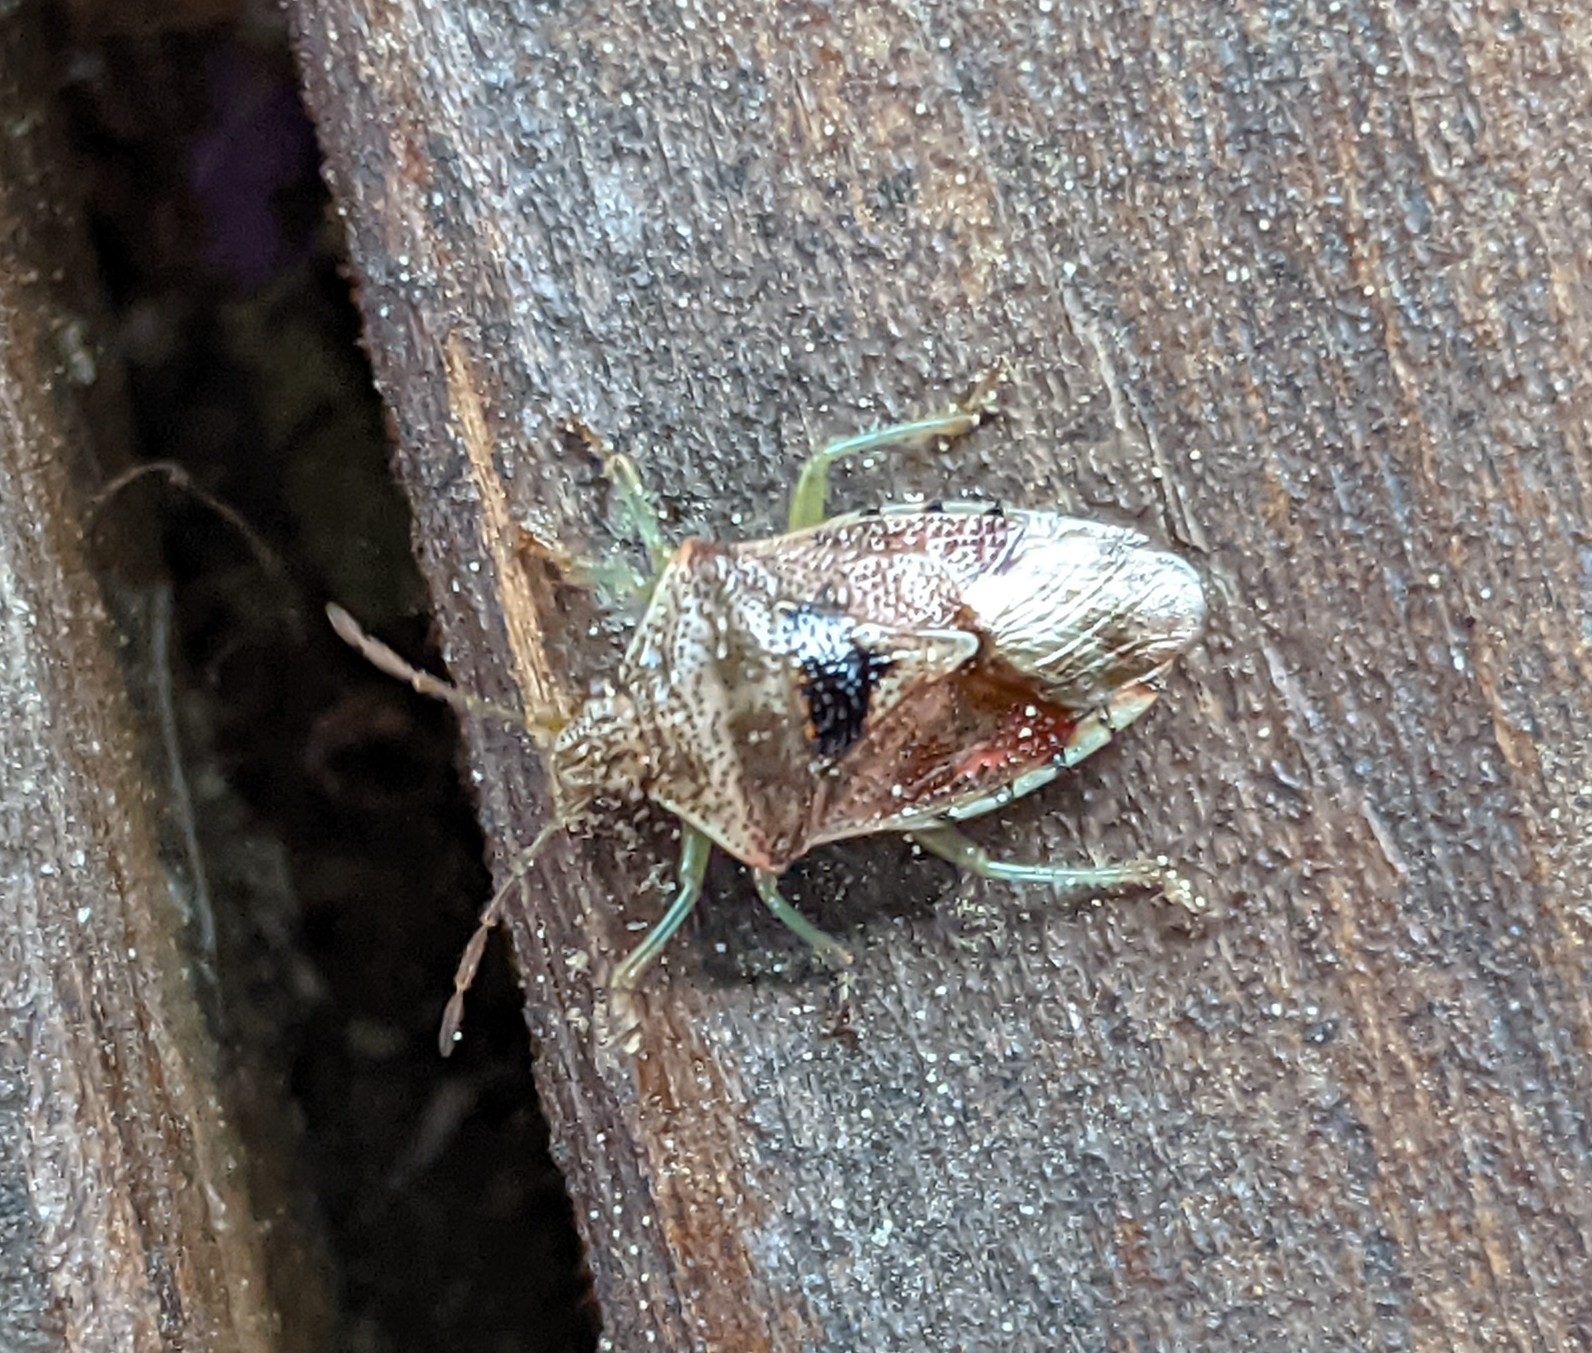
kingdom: Animalia
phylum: Arthropoda
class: Insecta
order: Hemiptera
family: Acanthosomatidae
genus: Elasmucha
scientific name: Elasmucha grisea
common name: Parent bug
